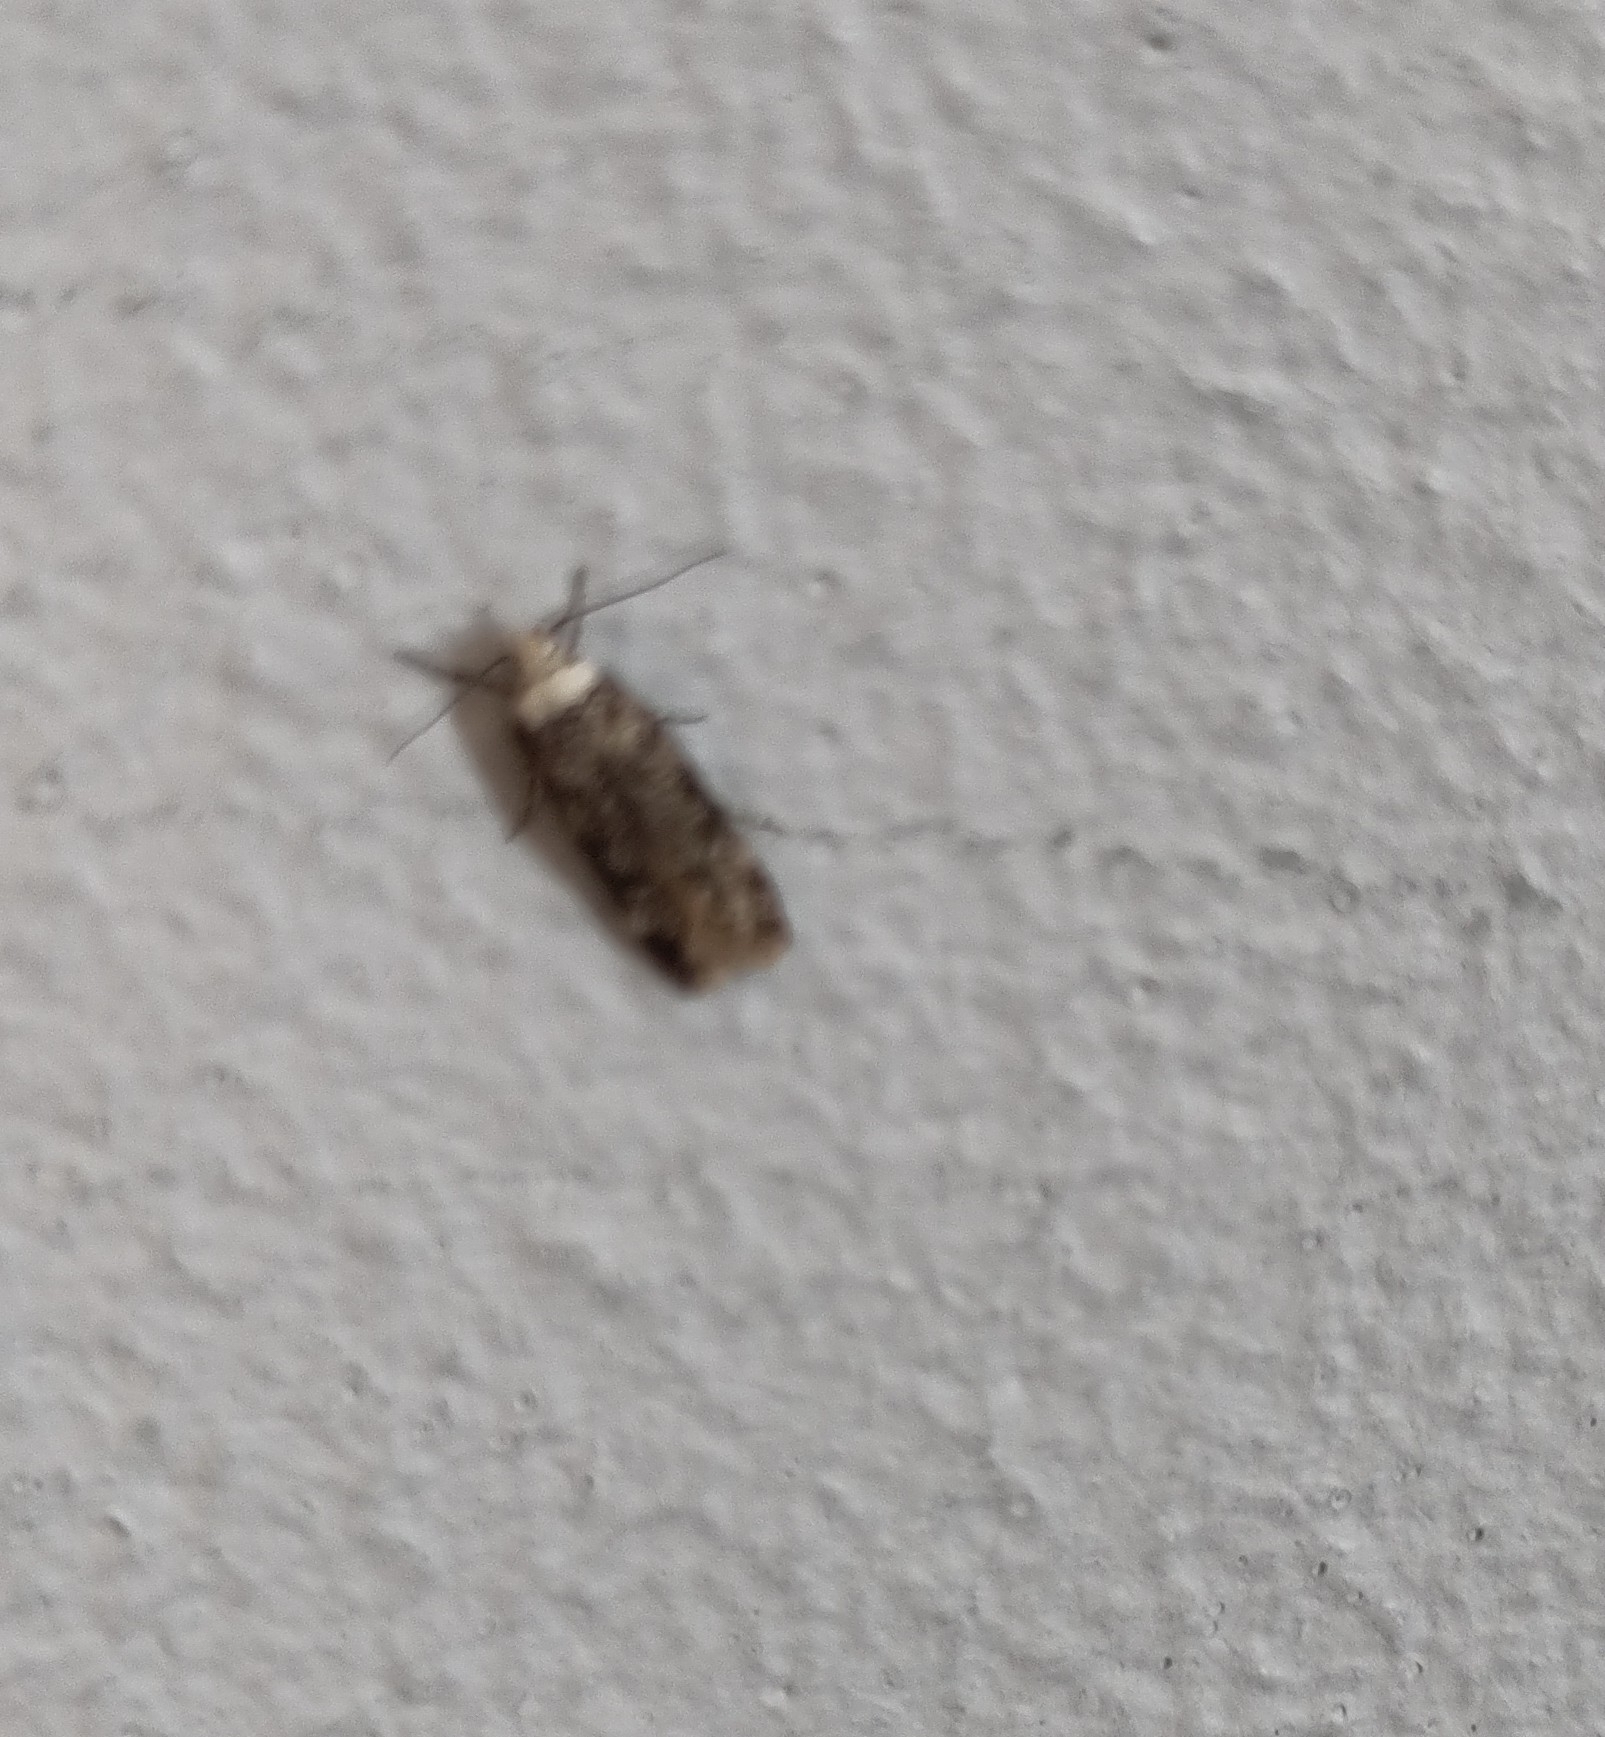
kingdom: Animalia
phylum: Arthropoda
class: Insecta
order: Lepidoptera
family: Oecophoridae
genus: Endrosis
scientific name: Endrosis sarcitrella
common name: White-shouldered house moth
